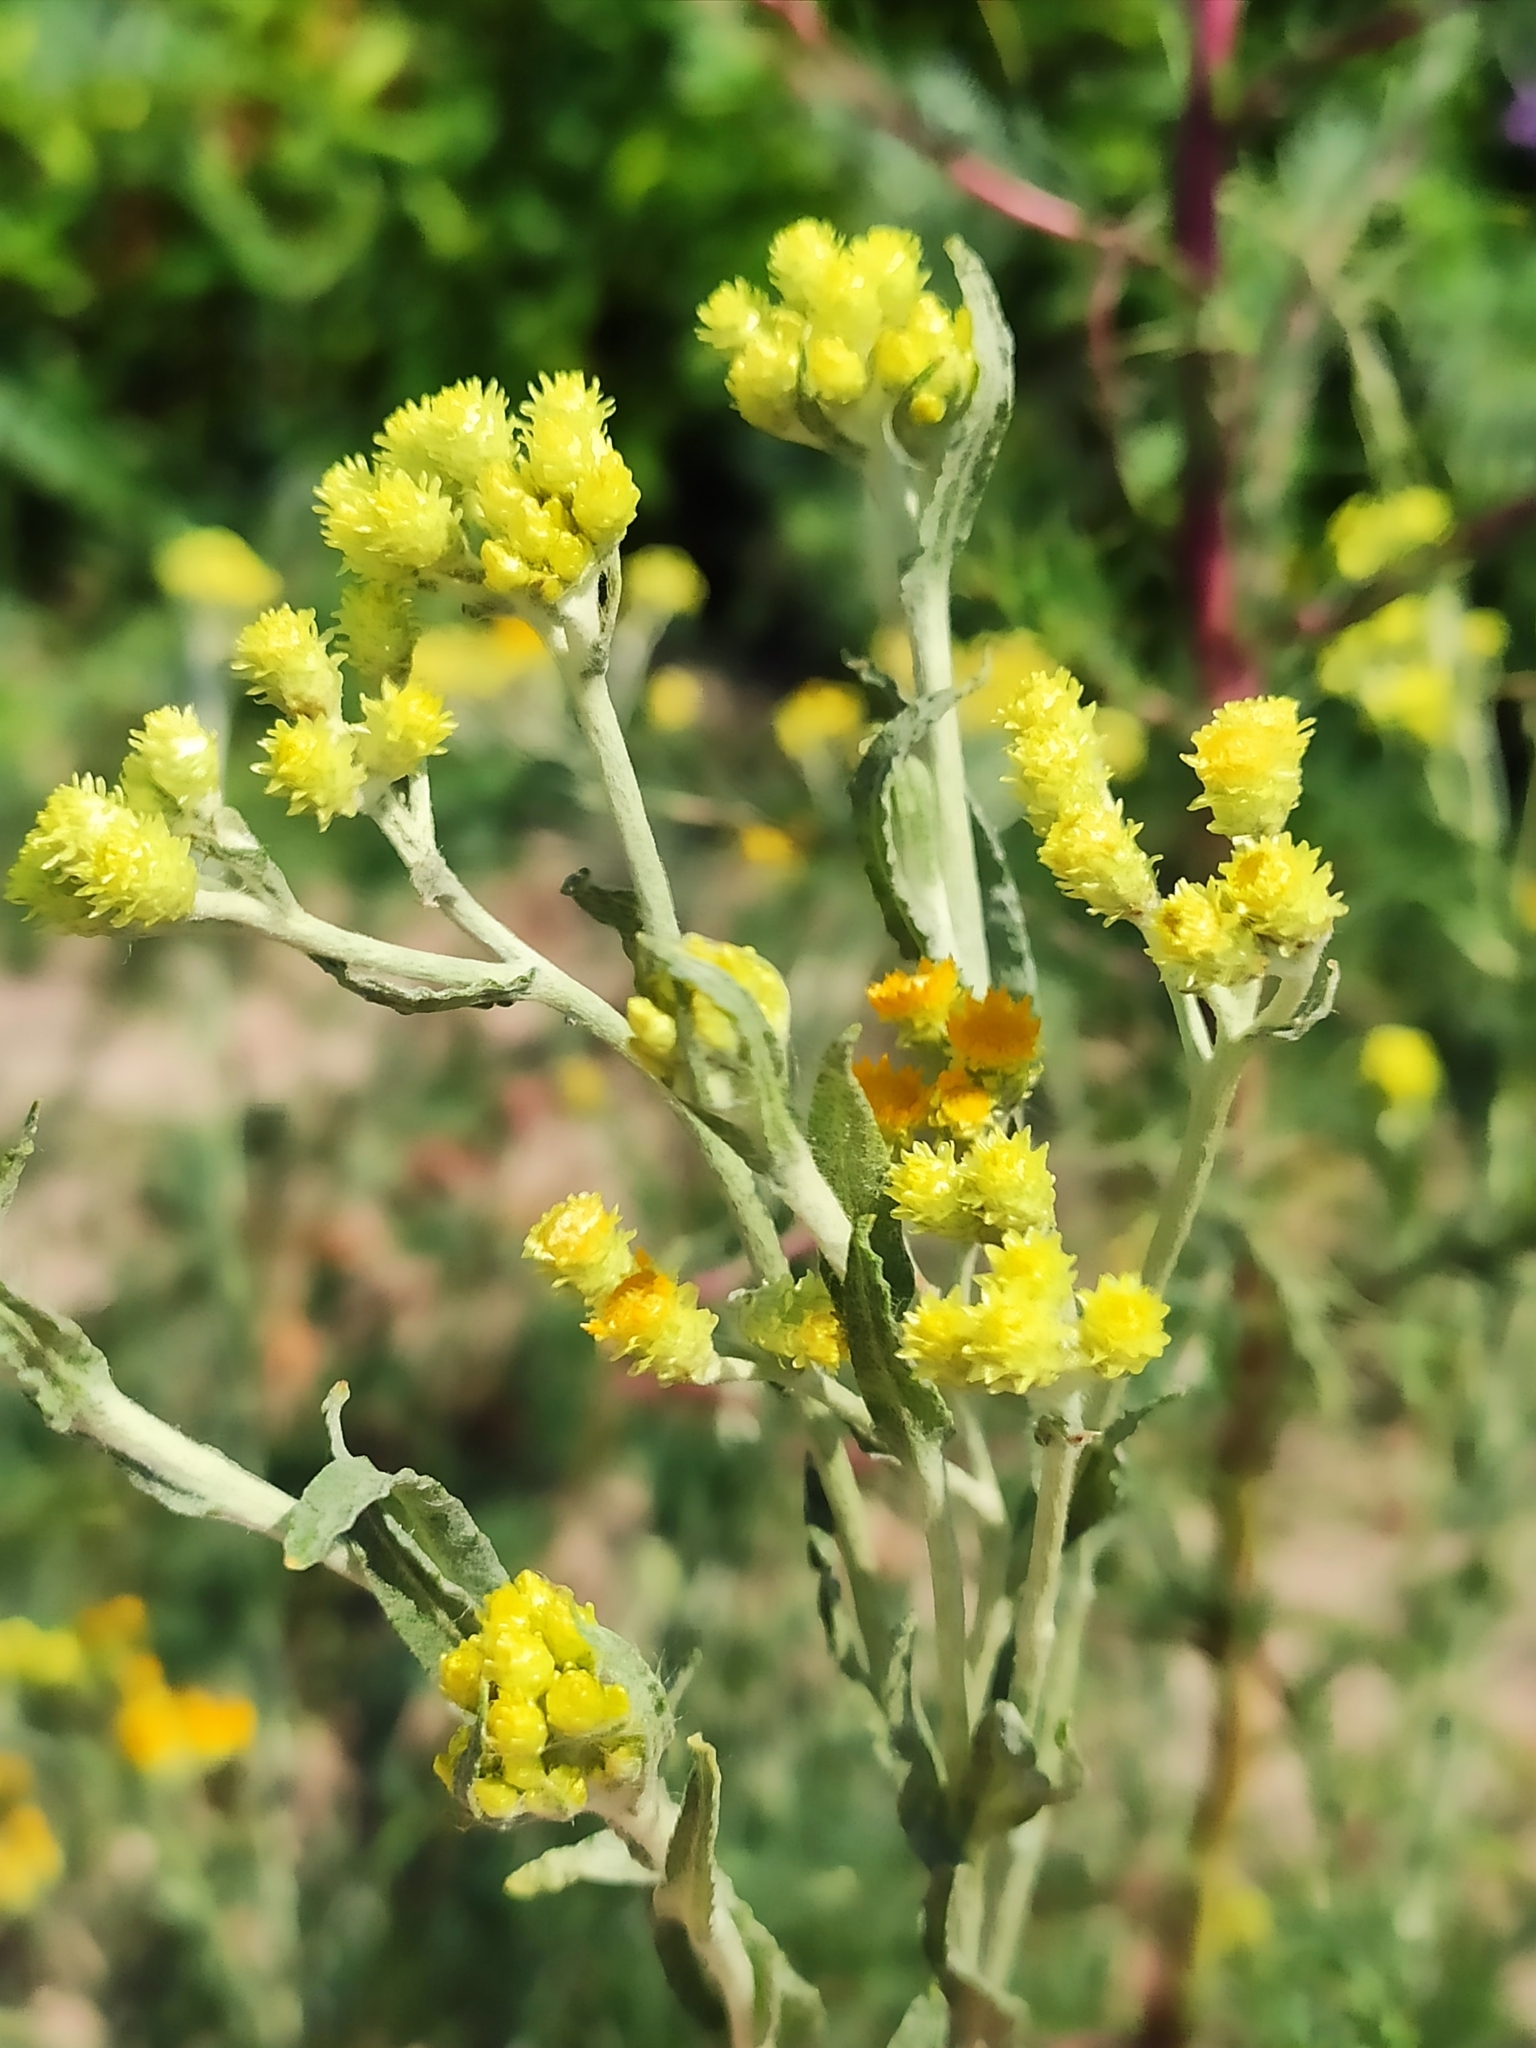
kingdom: Plantae
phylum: Tracheophyta
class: Magnoliopsida
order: Asterales
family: Asteraceae
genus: Helichrysum
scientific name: Helichrysum arenarium
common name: Strawflower
